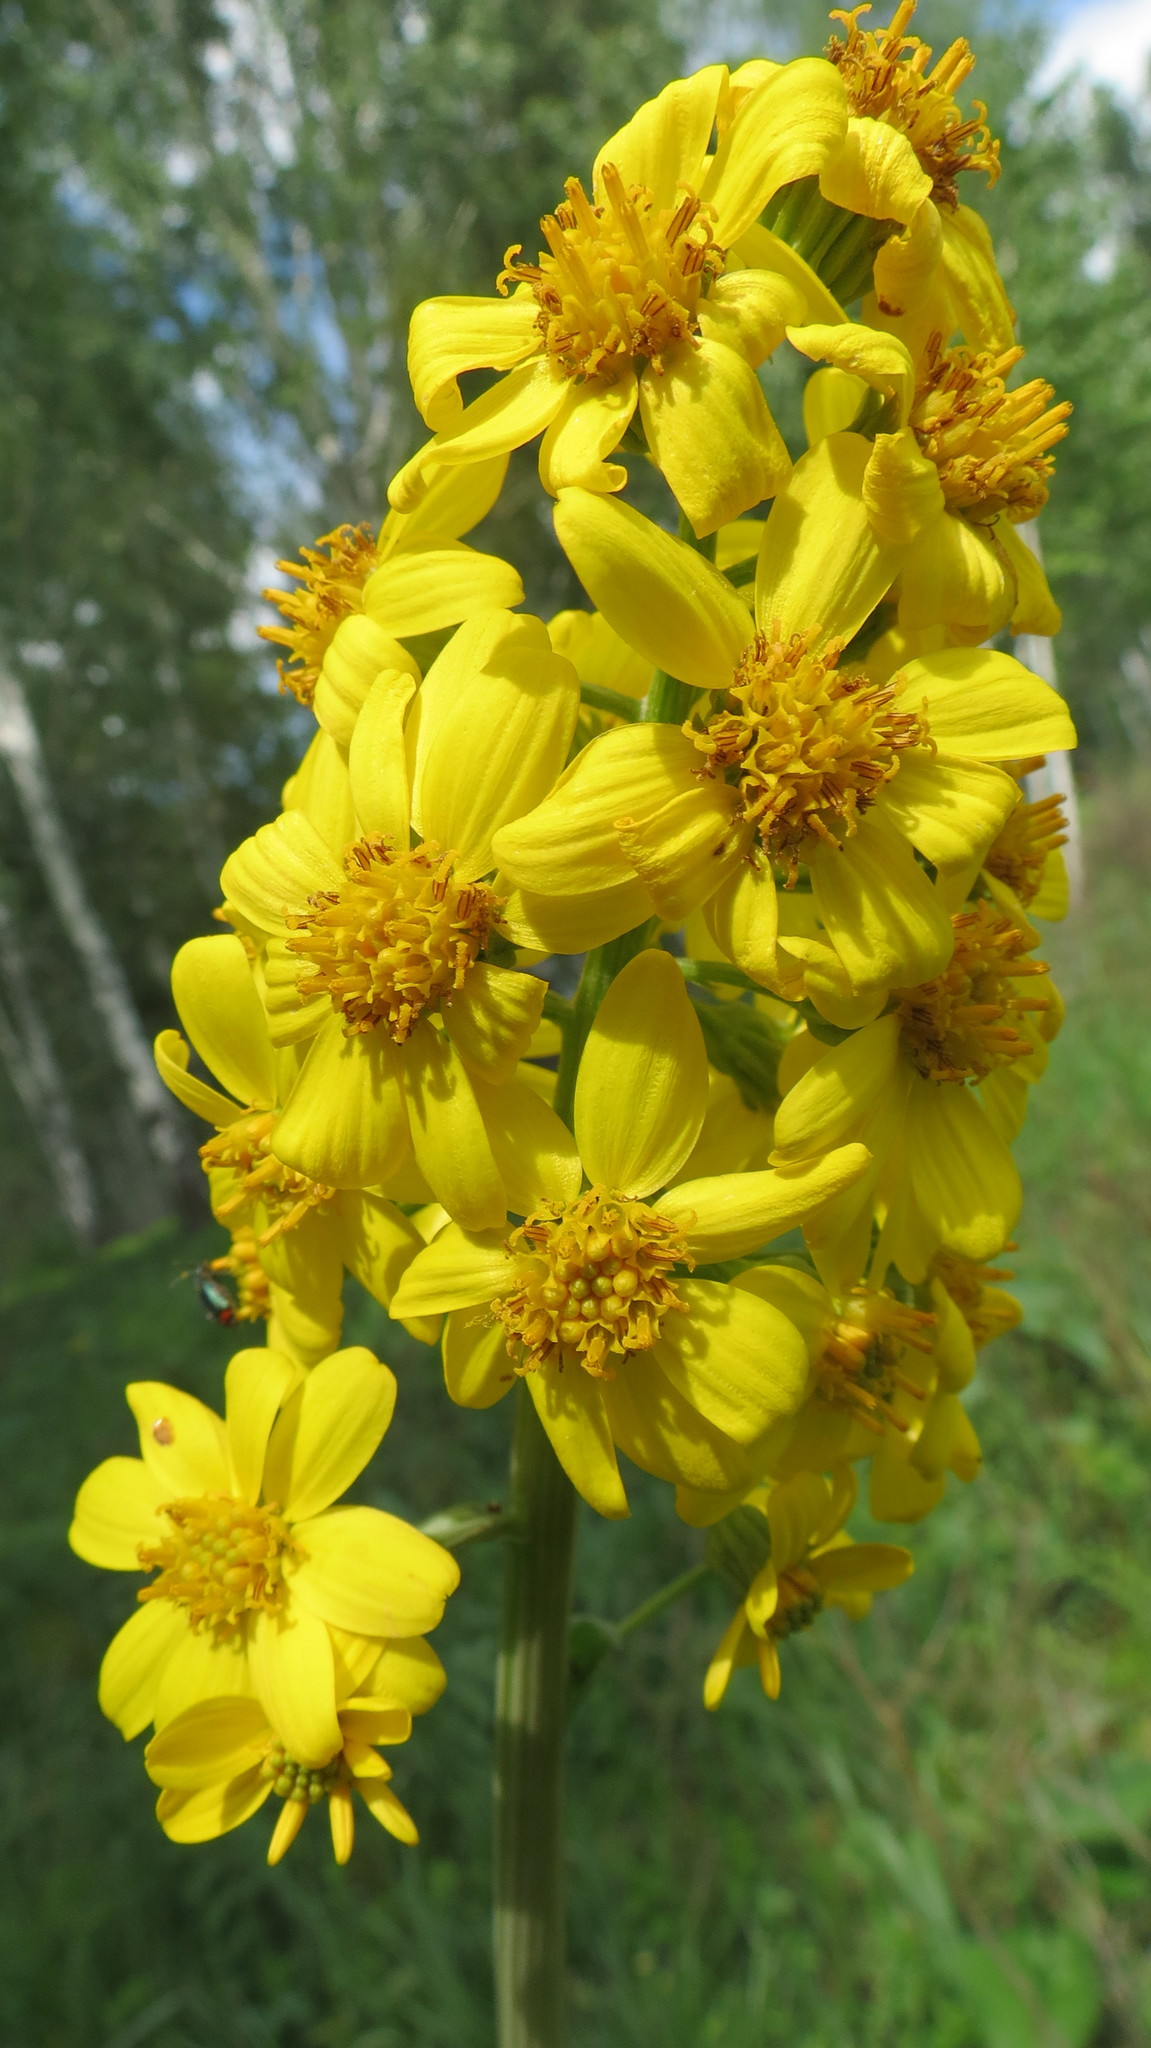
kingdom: Plantae
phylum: Tracheophyta
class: Magnoliopsida
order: Asterales
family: Asteraceae
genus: Ligularia
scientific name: Ligularia glauca
